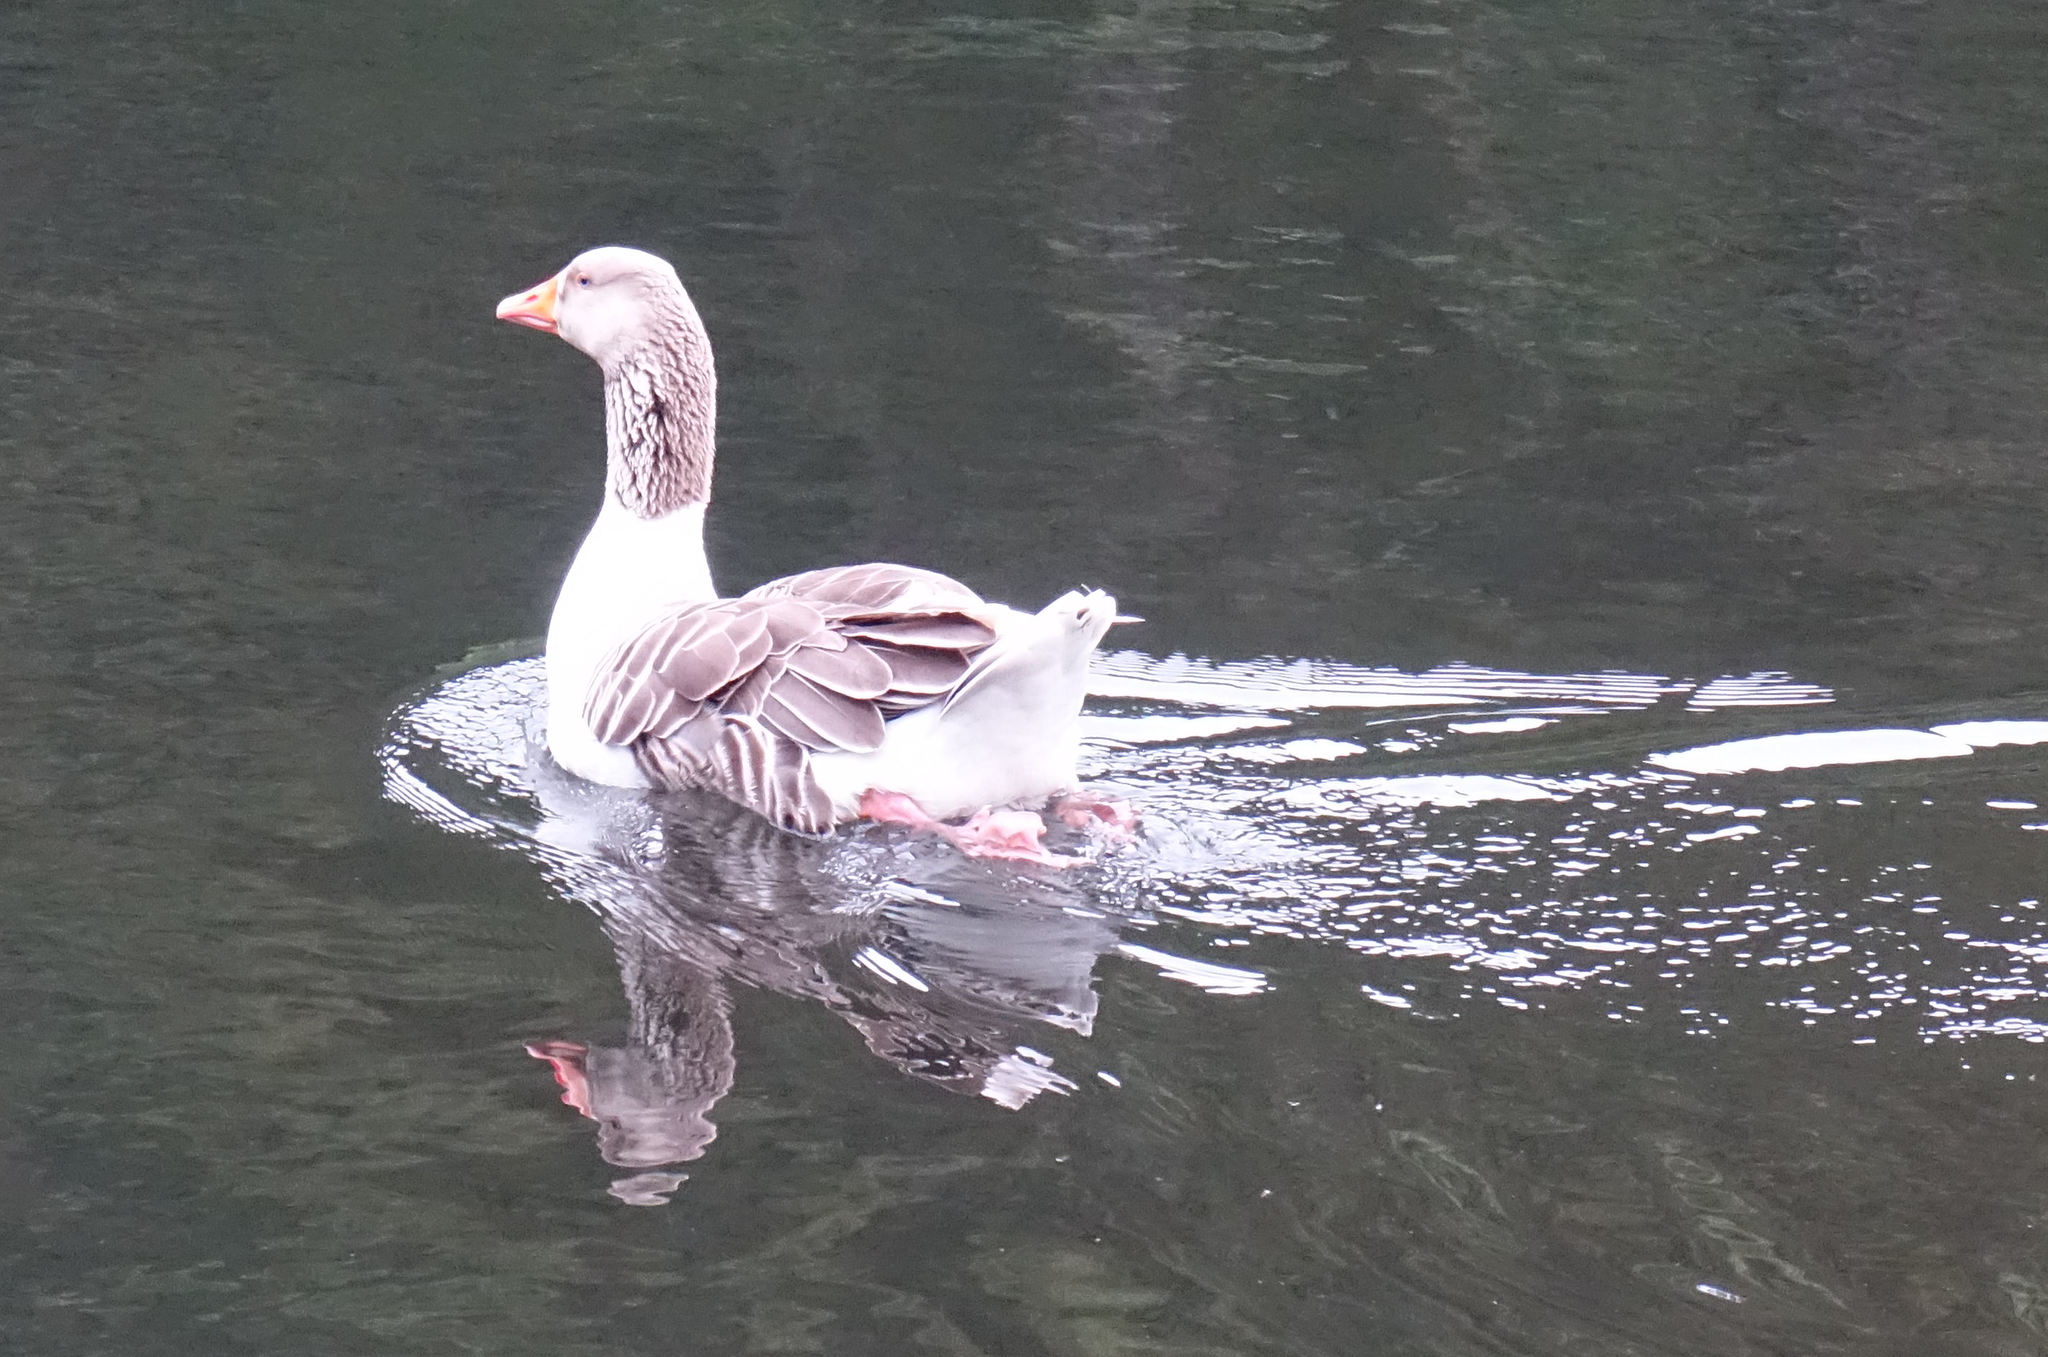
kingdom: Animalia
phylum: Chordata
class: Aves
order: Anseriformes
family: Anatidae
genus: Anser
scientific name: Anser anser
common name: Greylag goose
